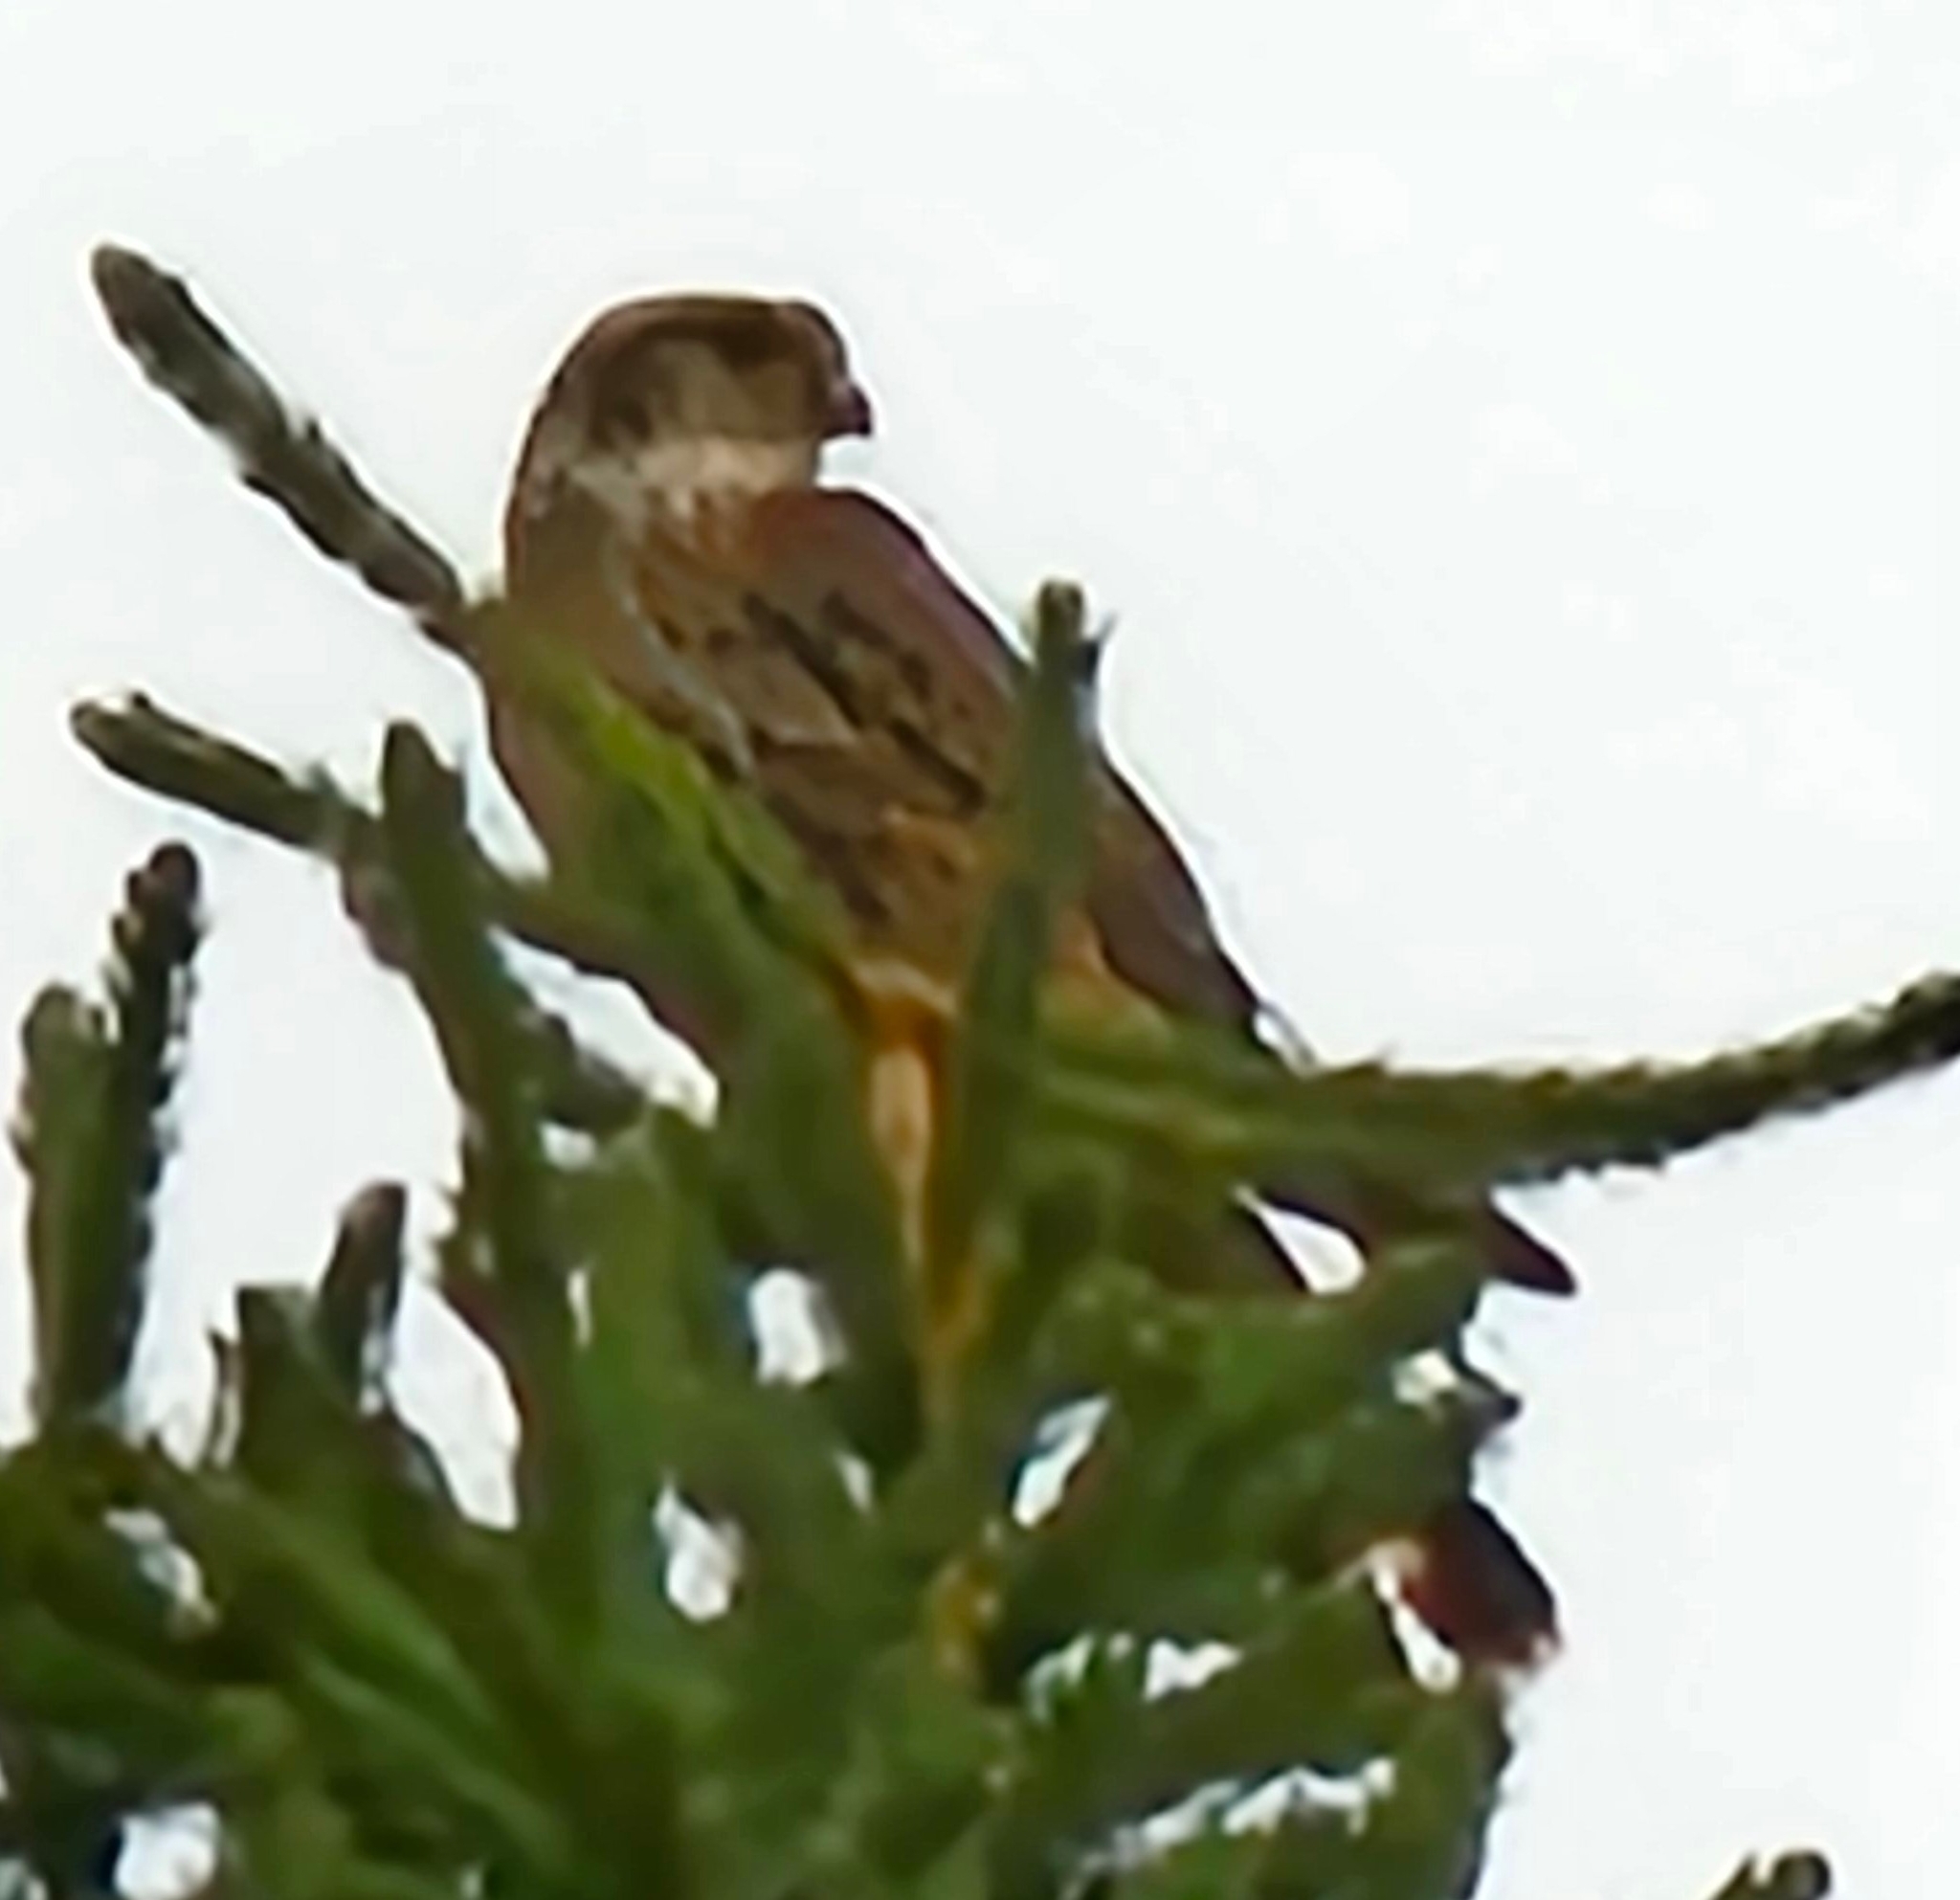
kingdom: Animalia
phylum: Chordata
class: Aves
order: Falconiformes
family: Falconidae
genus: Falco
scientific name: Falco columbarius
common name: Merlin
